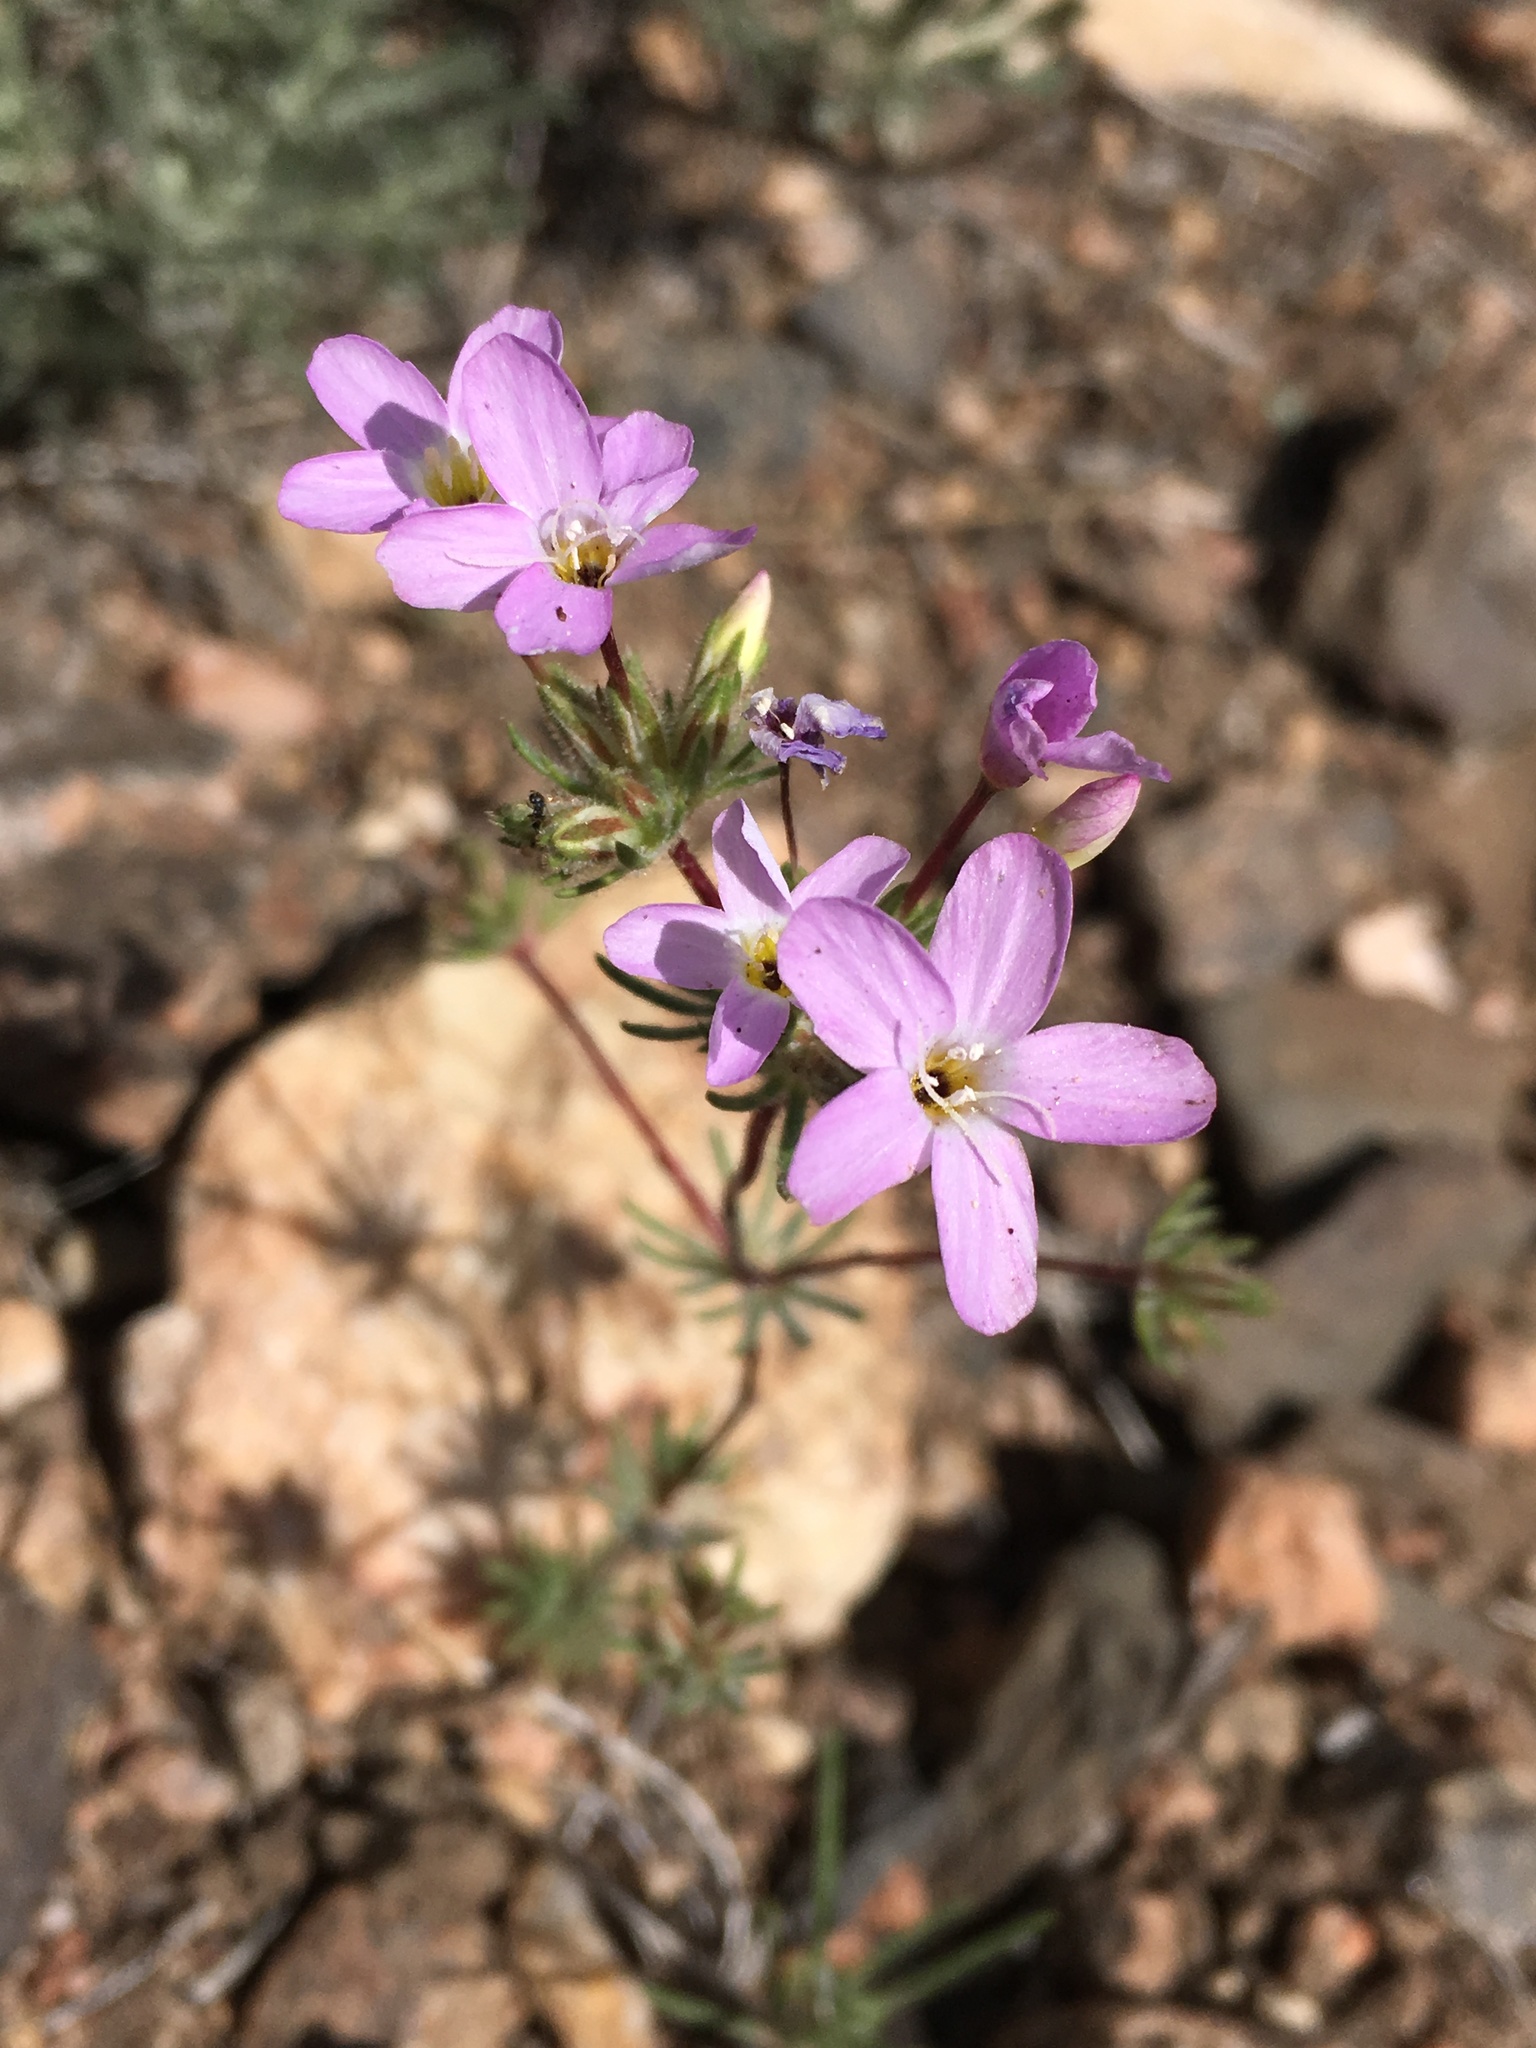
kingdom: Plantae
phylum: Tracheophyta
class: Magnoliopsida
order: Ericales
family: Polemoniaceae
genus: Leptosiphon
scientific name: Leptosiphon breviculus
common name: Mojave linanthus
